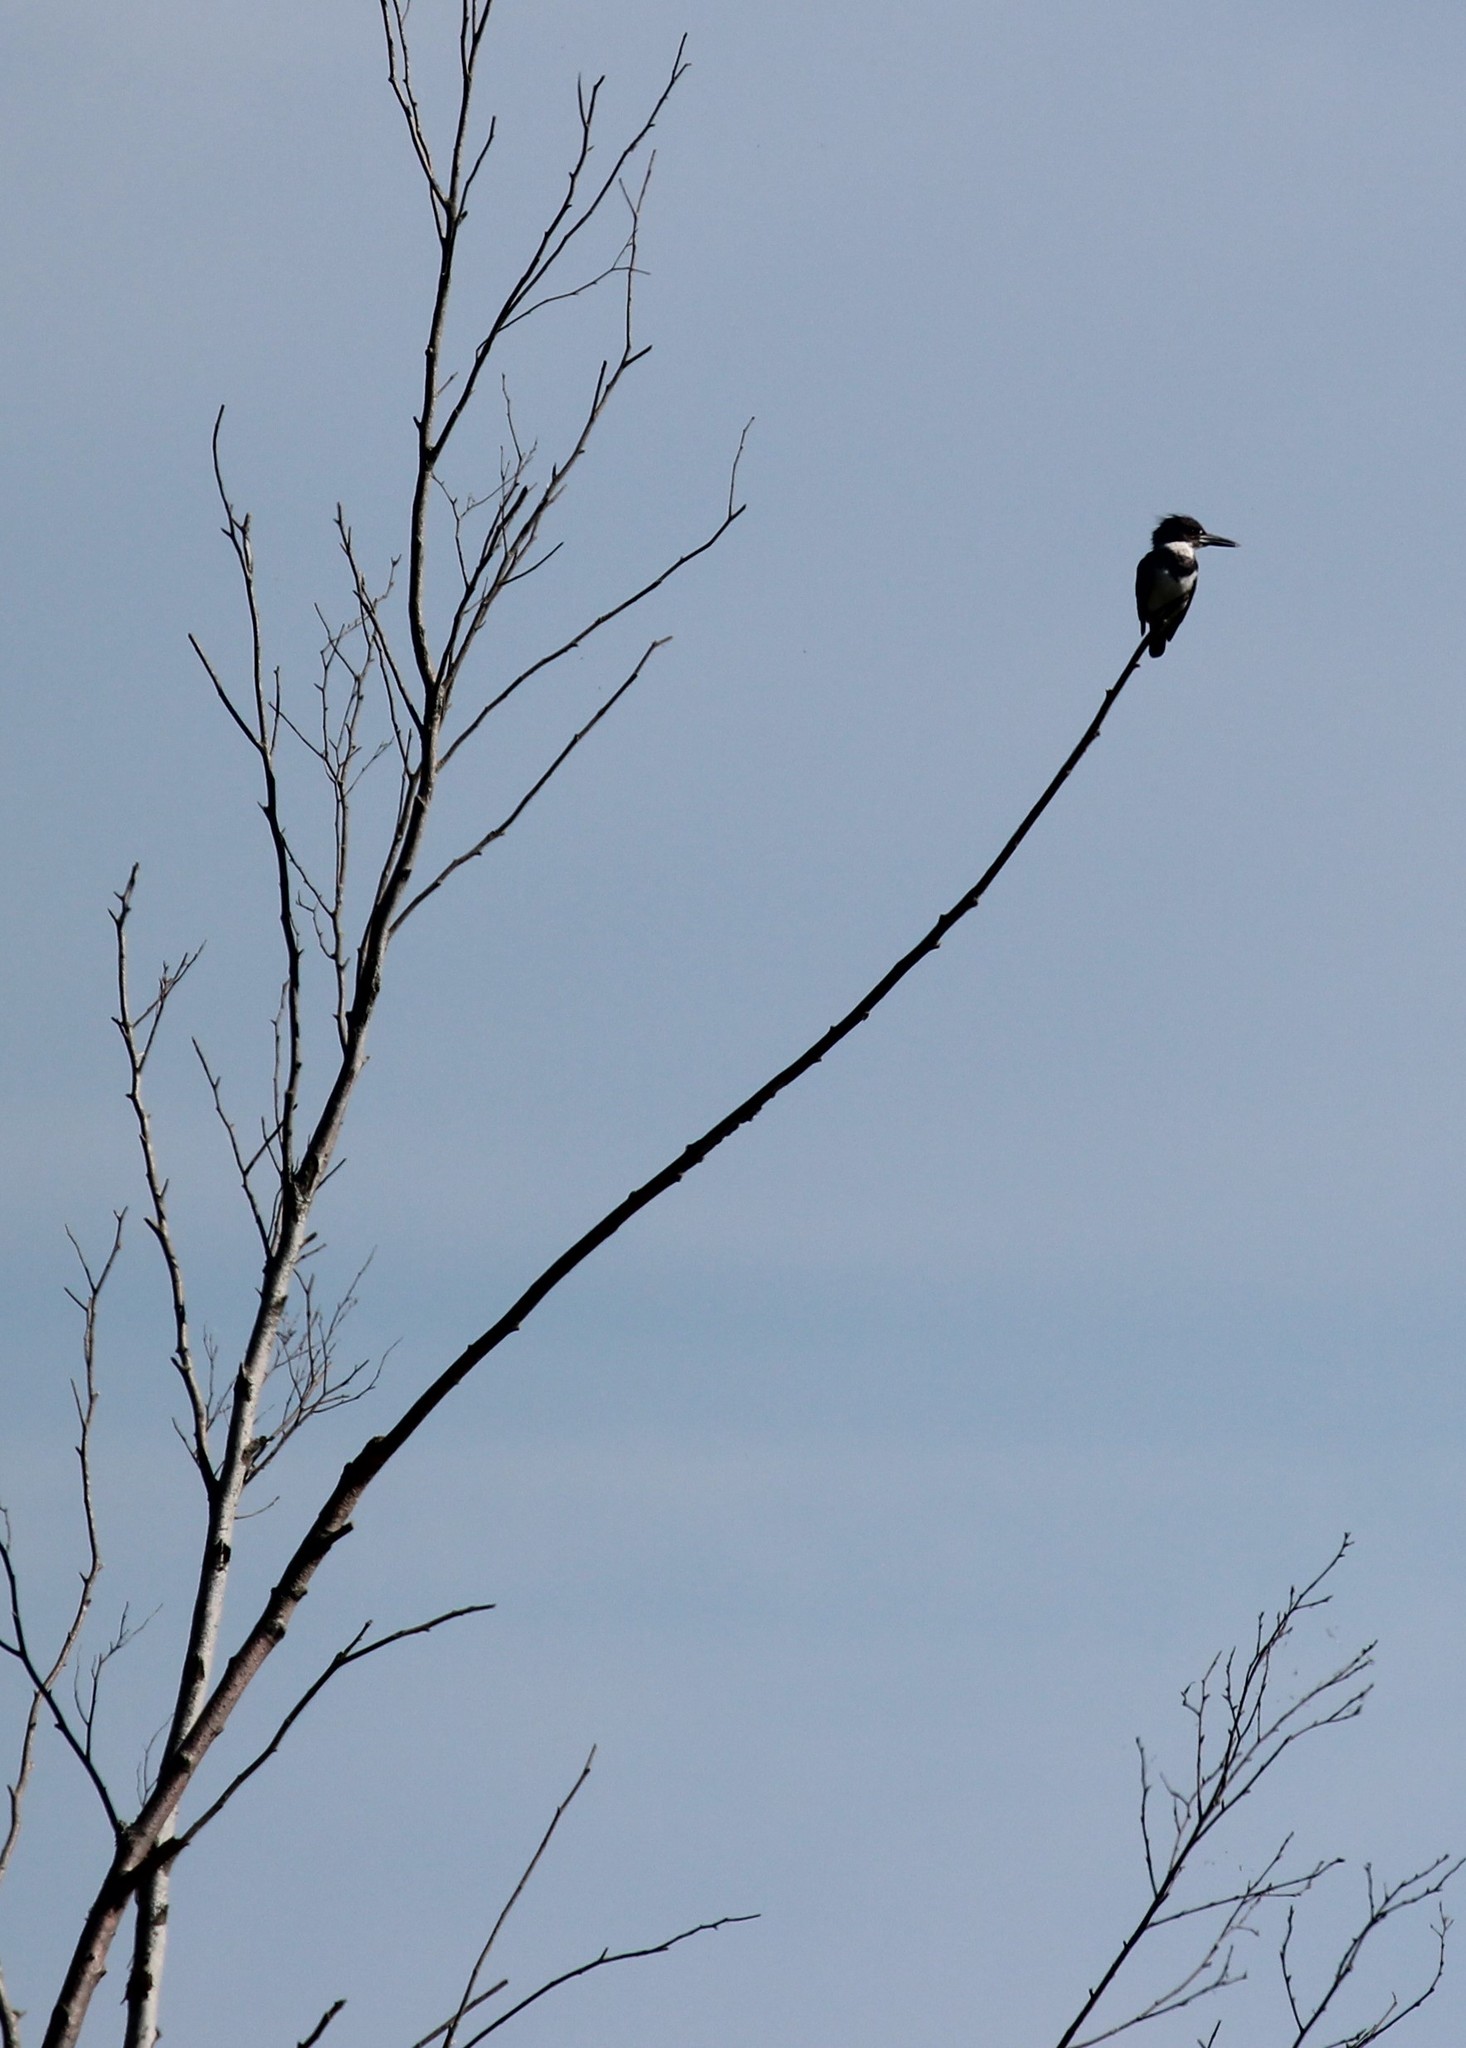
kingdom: Animalia
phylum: Chordata
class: Aves
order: Coraciiformes
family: Alcedinidae
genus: Megaceryle
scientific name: Megaceryle alcyon
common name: Belted kingfisher
